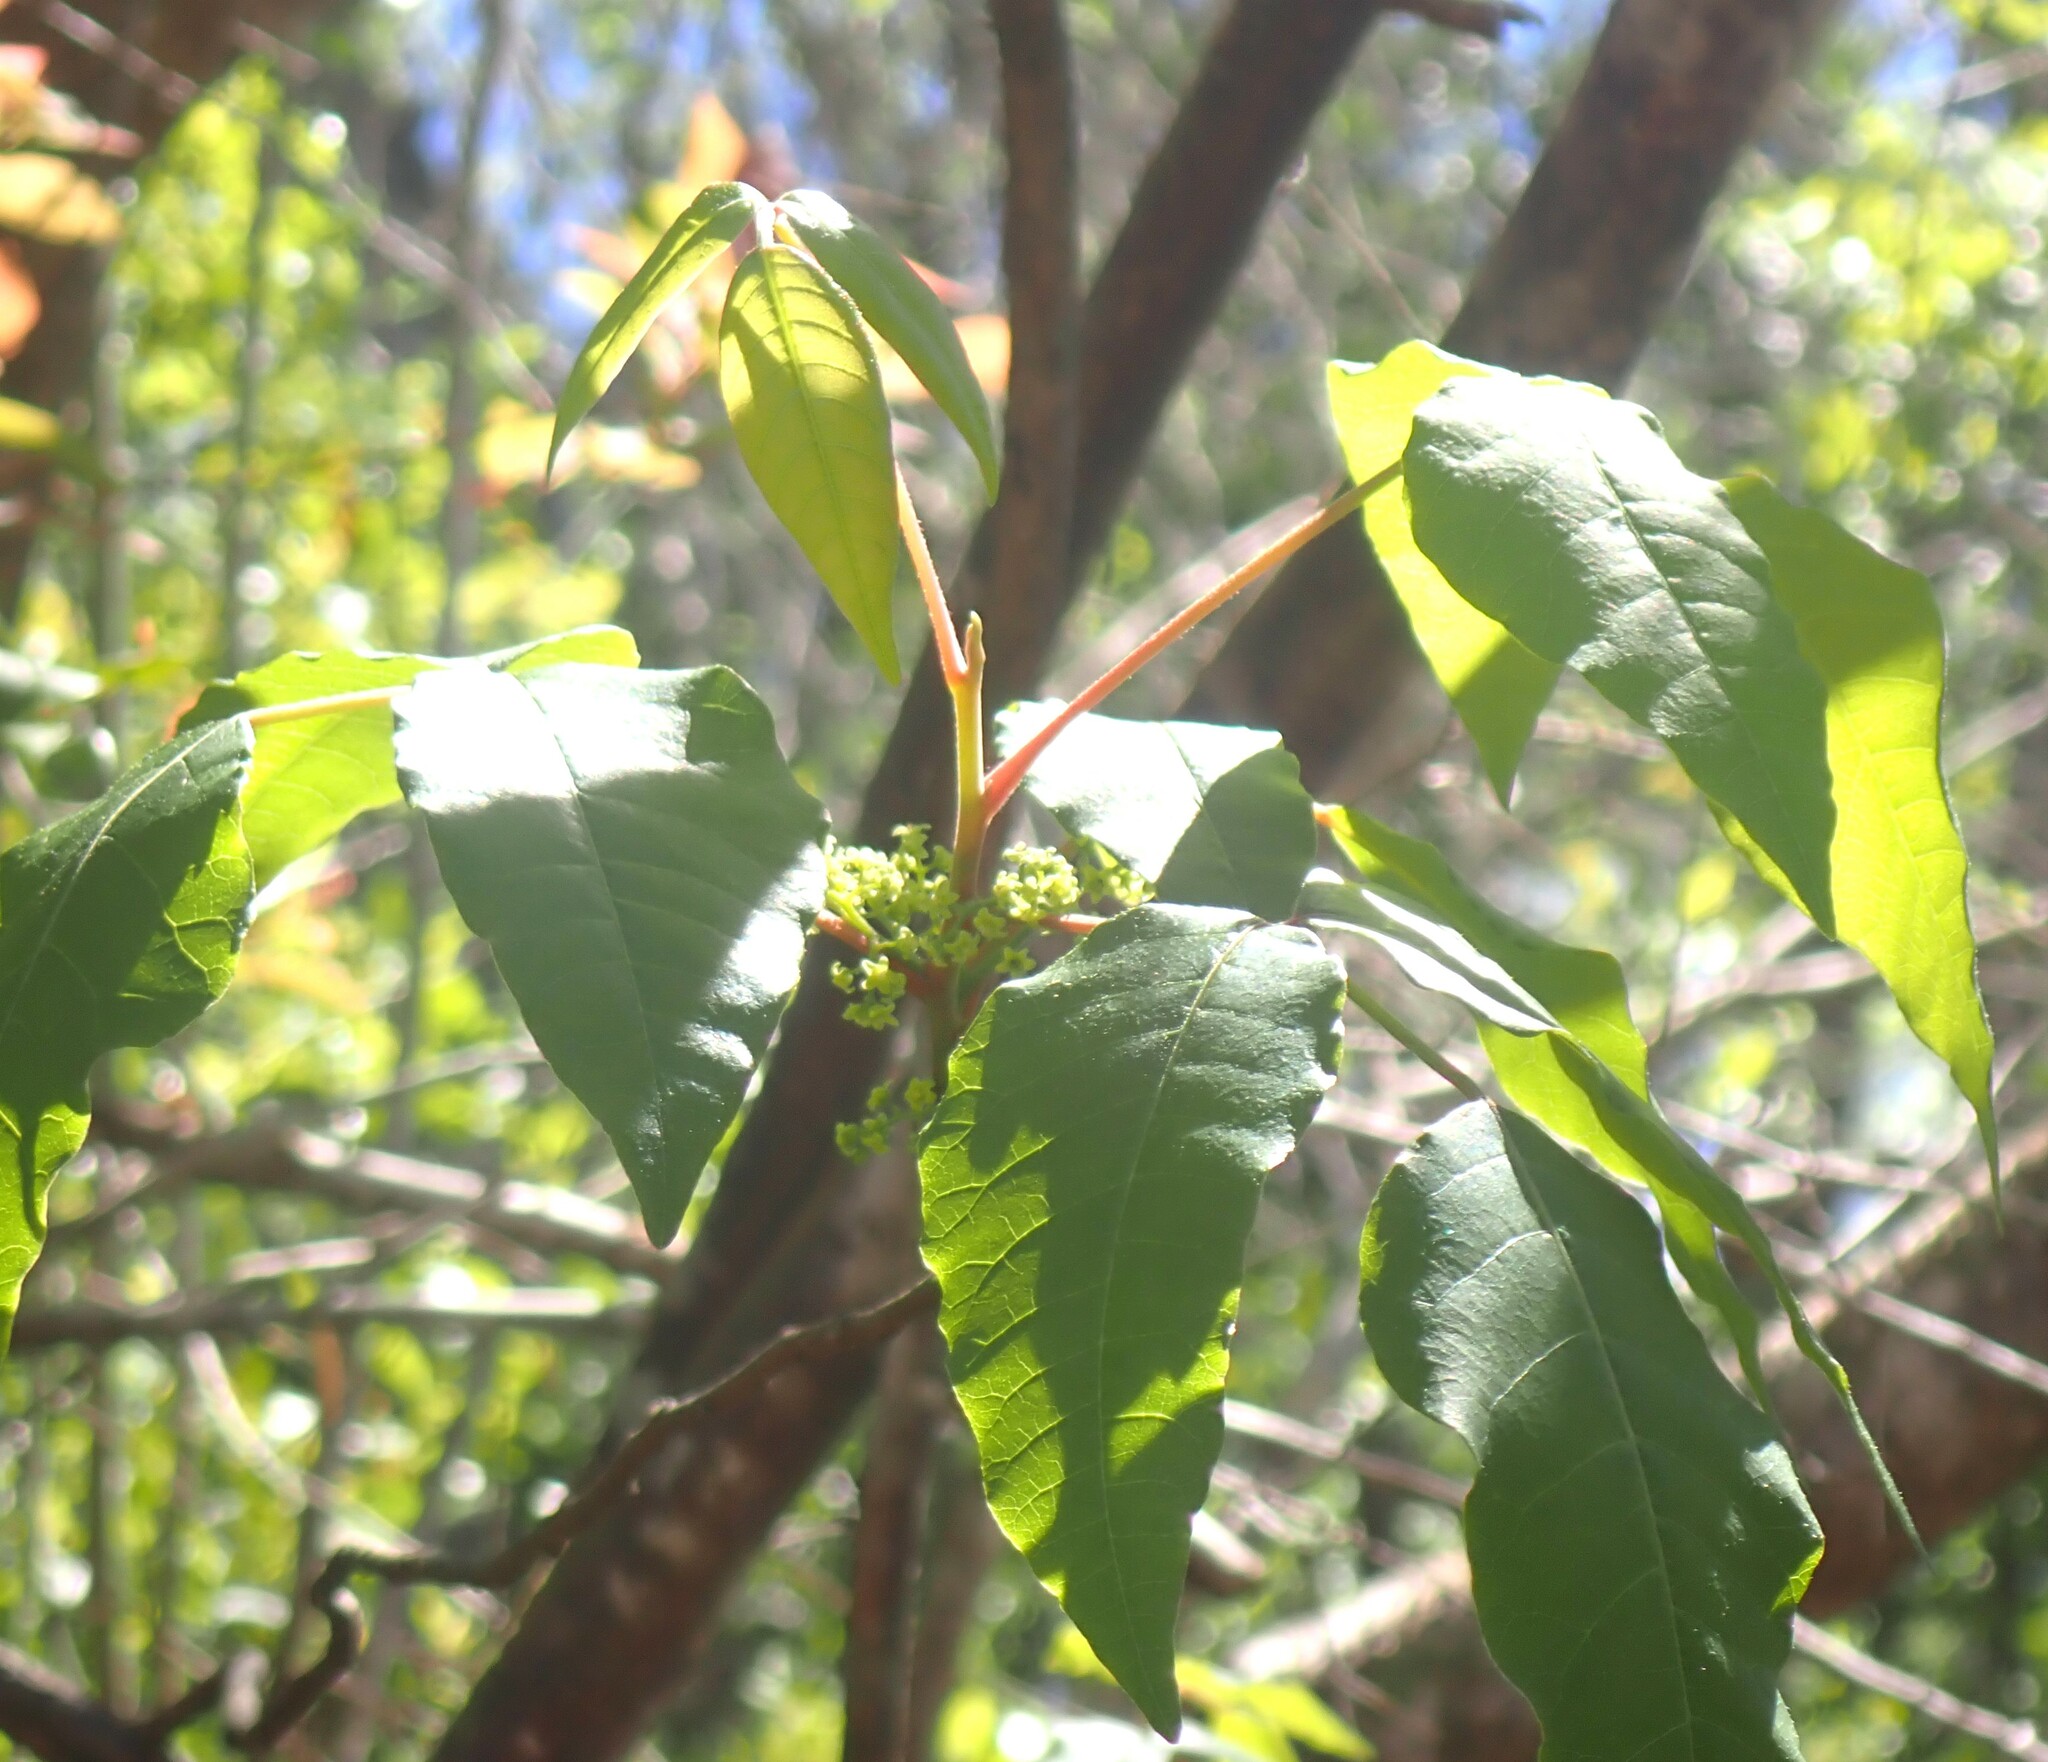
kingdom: Plantae
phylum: Tracheophyta
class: Magnoliopsida
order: Sapindales
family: Anacardiaceae
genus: Toxicodendron
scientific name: Toxicodendron radicans
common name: Poison ivy
